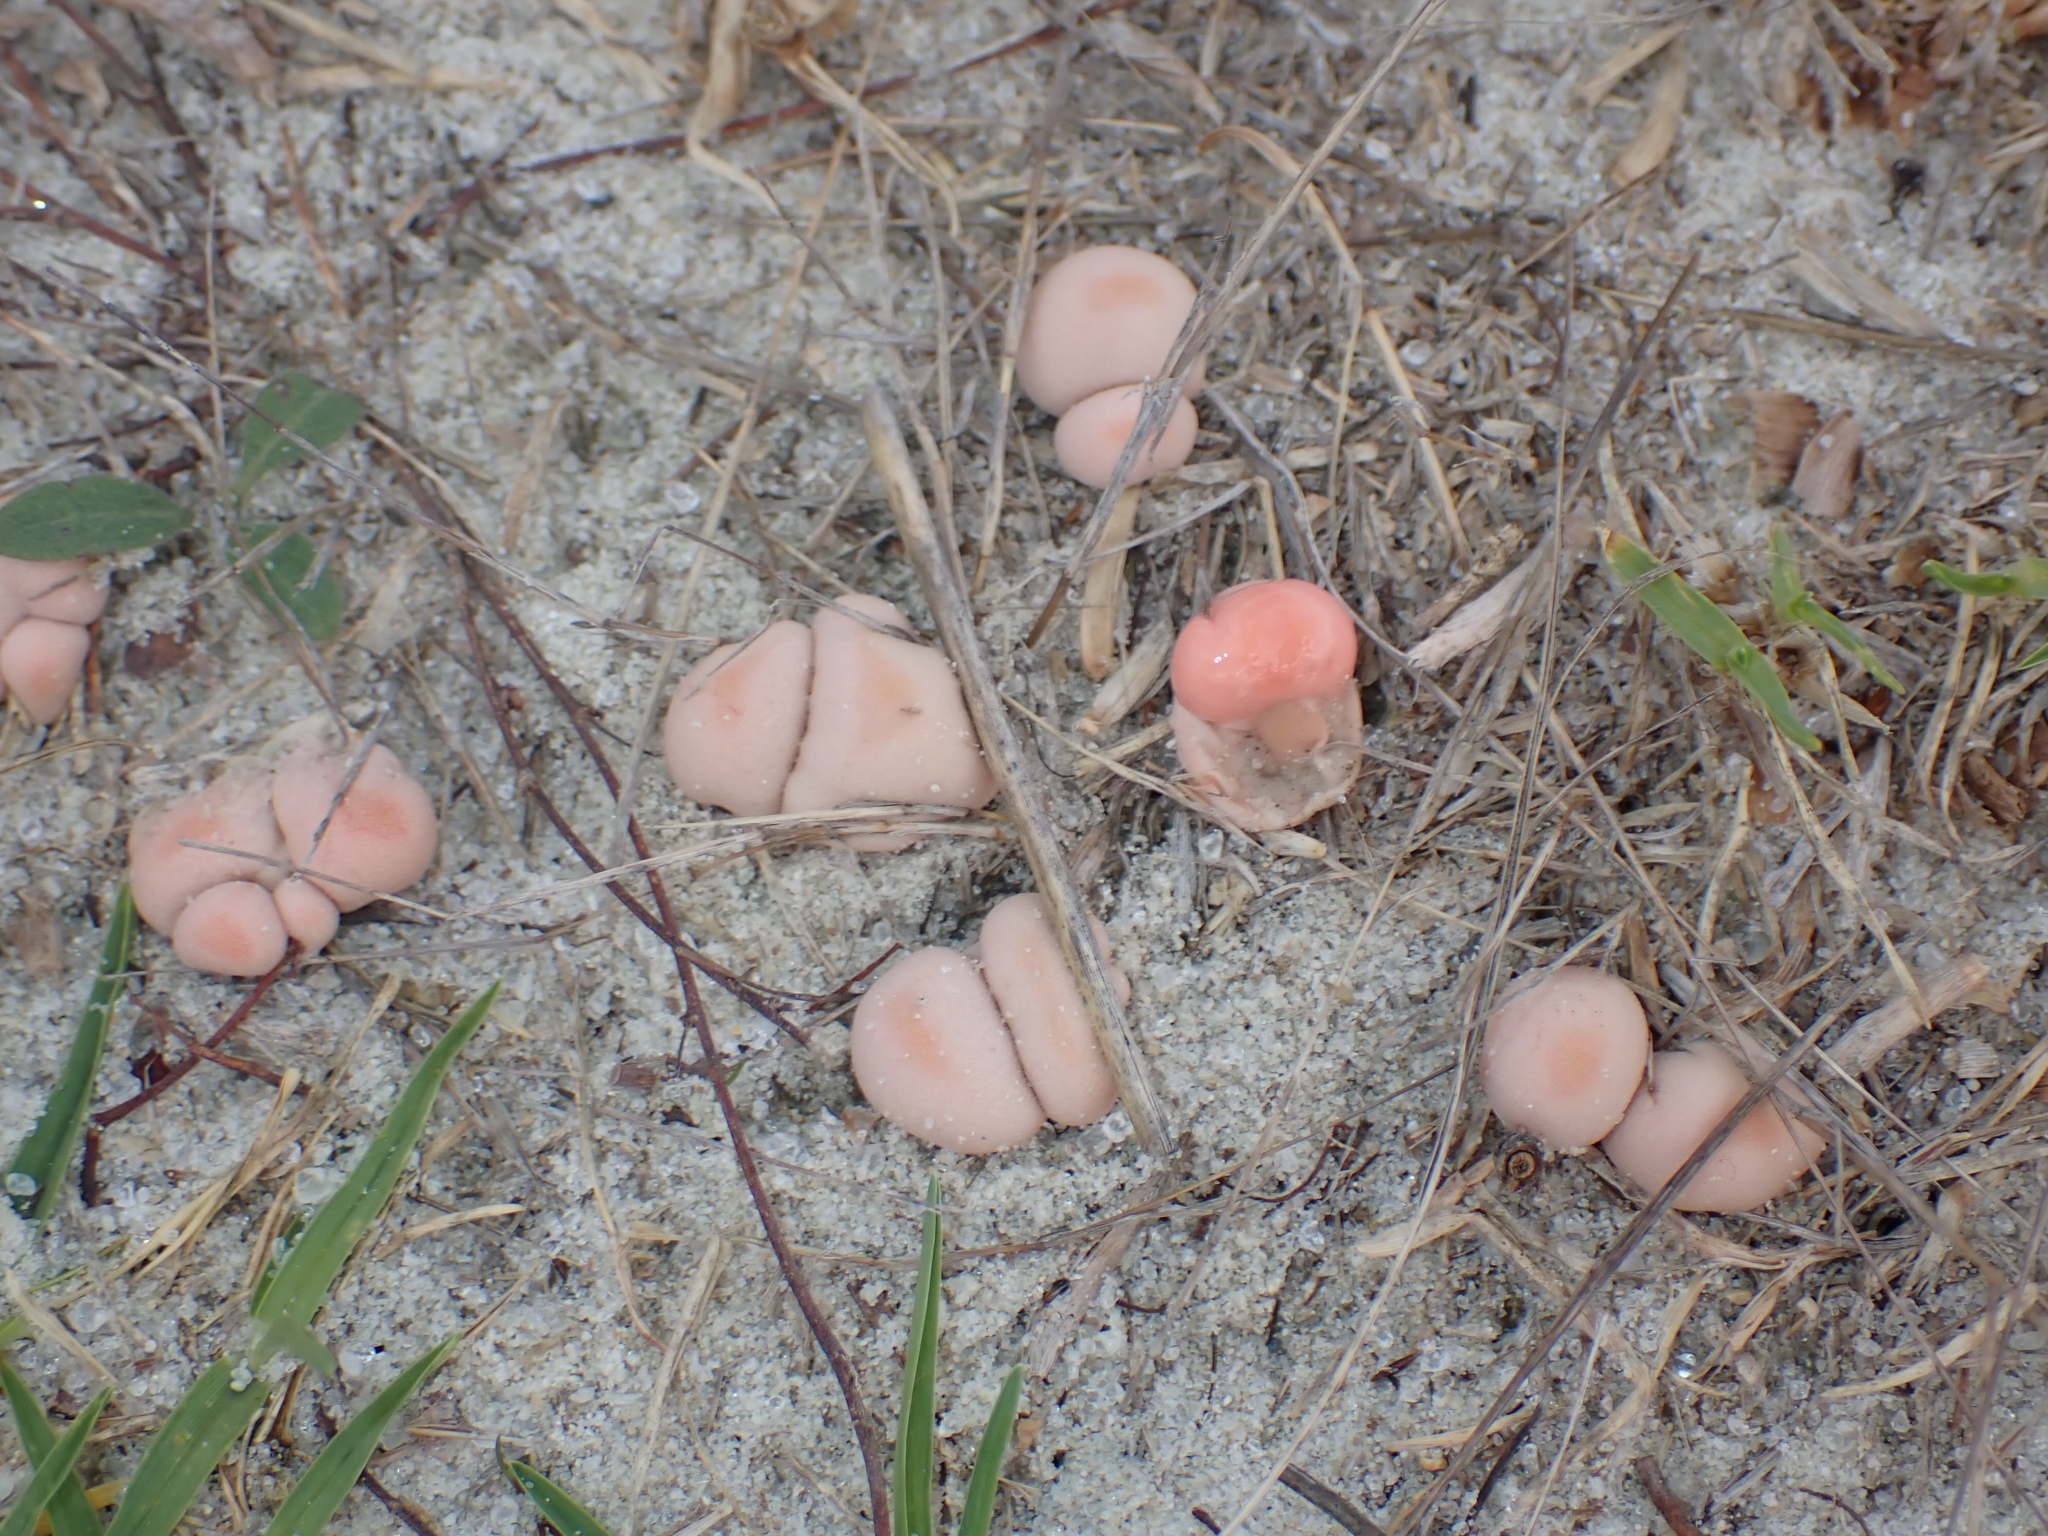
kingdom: Protozoa
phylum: Mycetozoa
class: Myxomycetes
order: Cribrariales
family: Tubiferaceae
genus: Lycogala
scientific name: Lycogala epidendrum
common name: Wolf's milk
